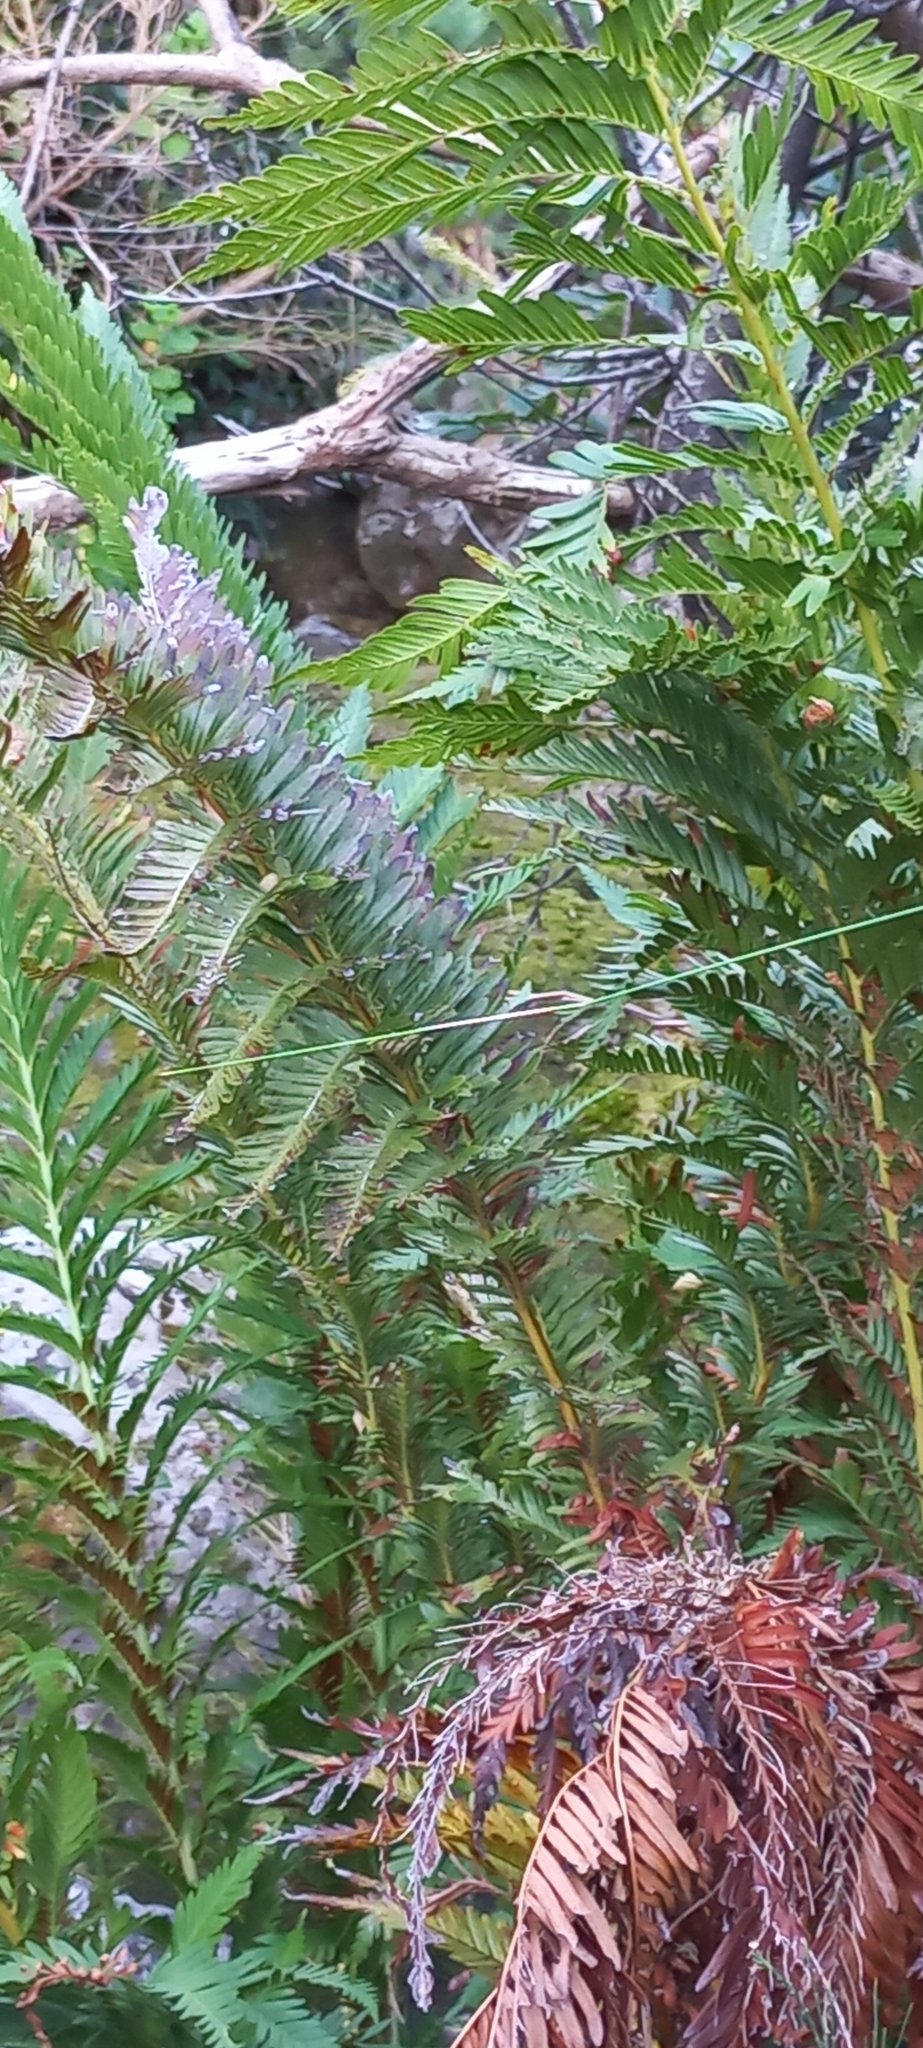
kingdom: Plantae
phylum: Tracheophyta
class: Polypodiopsida
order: Osmundales
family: Osmundaceae
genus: Todea
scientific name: Todea barbara
